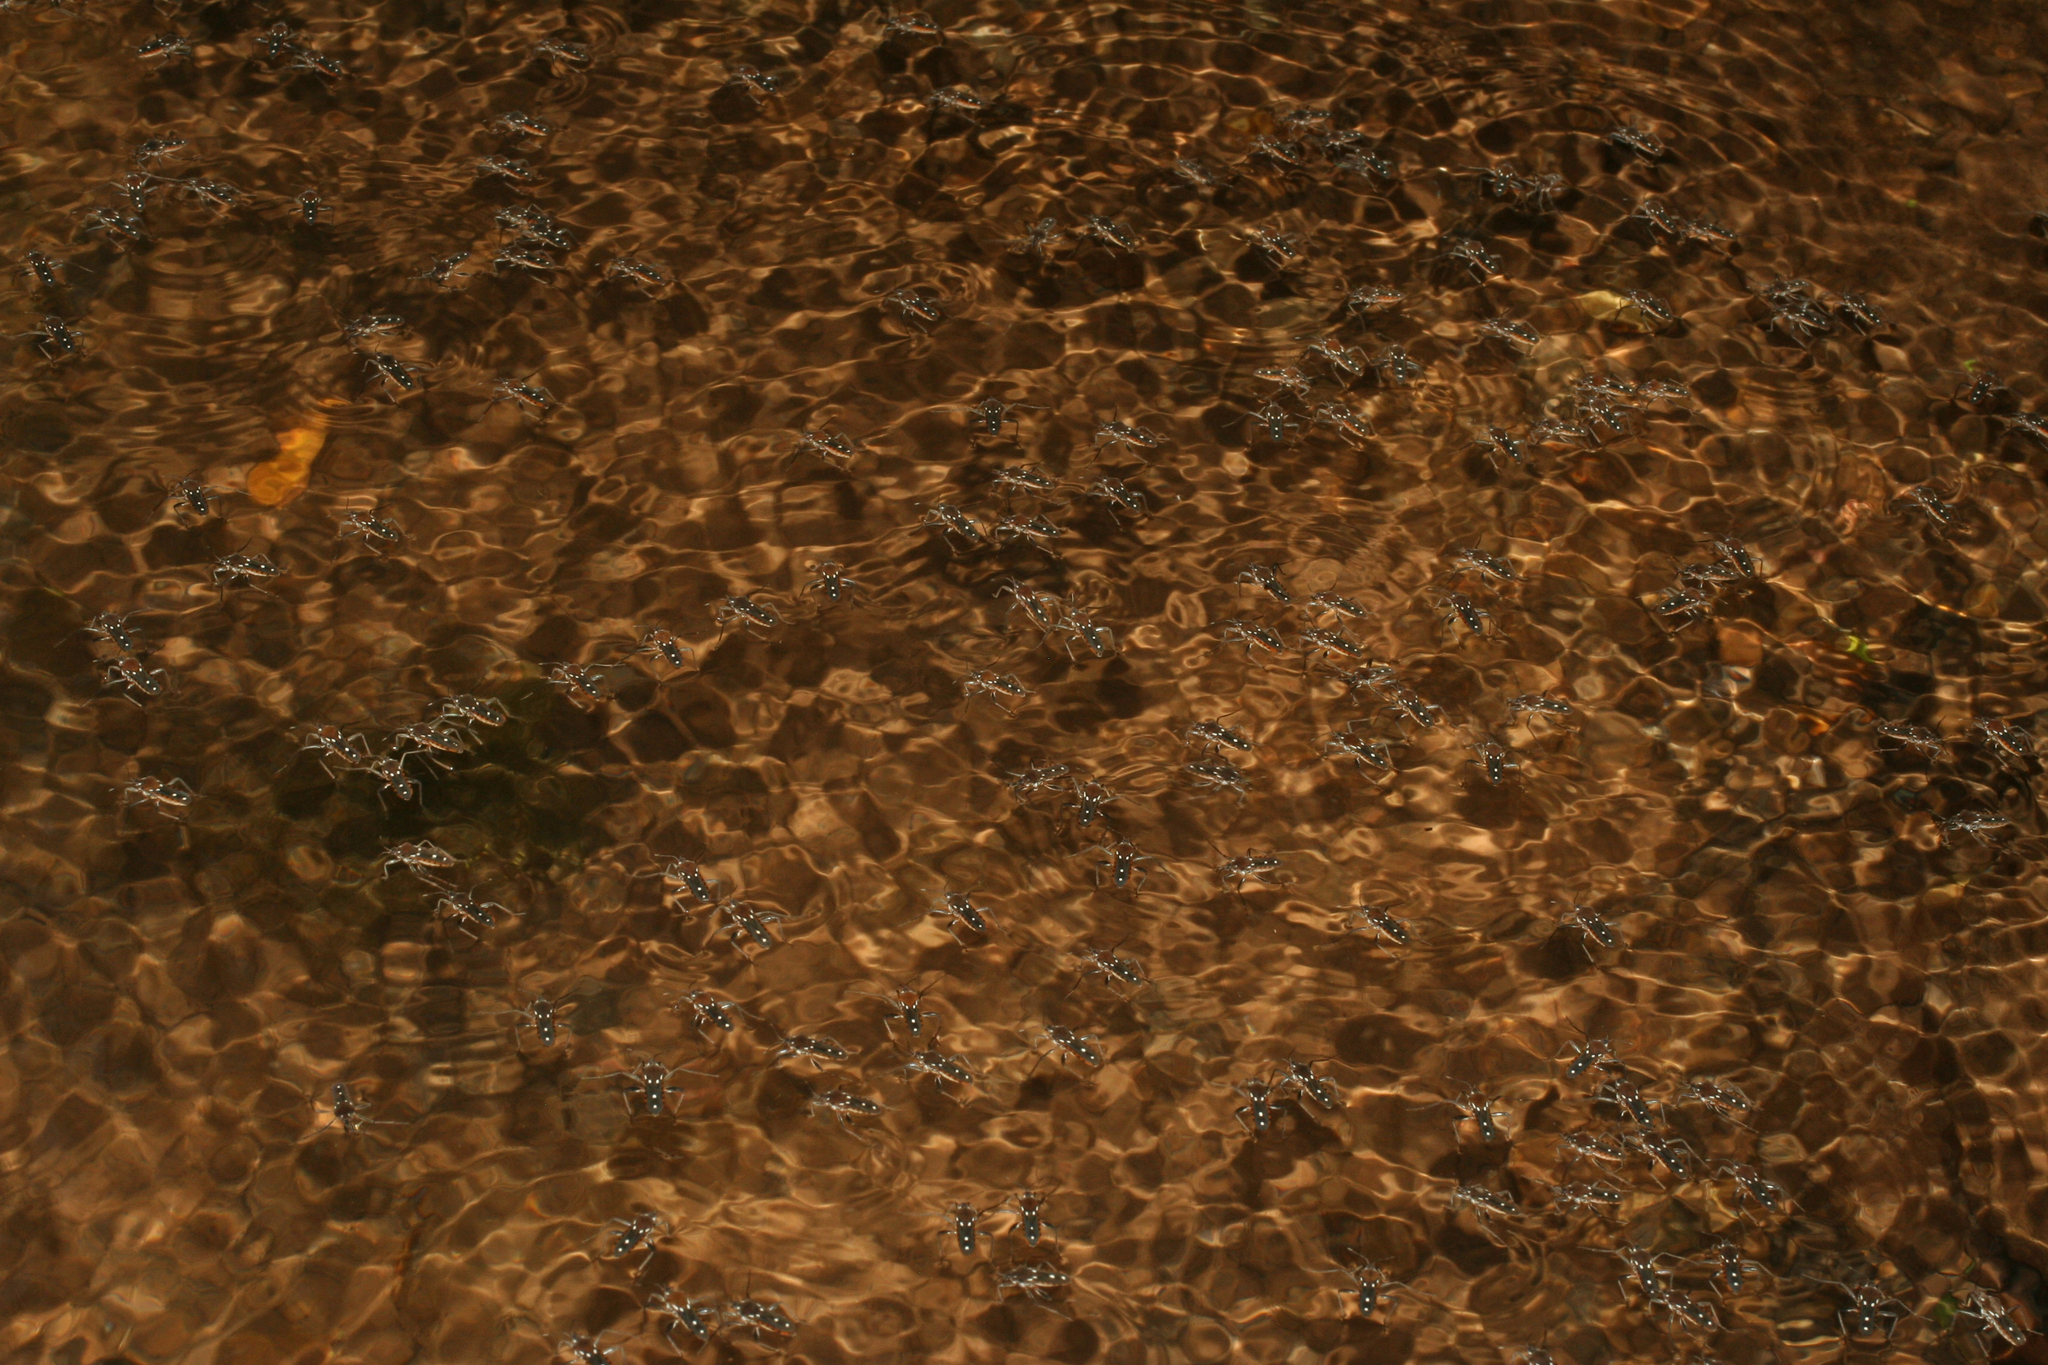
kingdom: Animalia
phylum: Arthropoda
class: Insecta
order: Hemiptera
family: Veliidae
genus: Plesiovelia
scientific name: Plesiovelia
